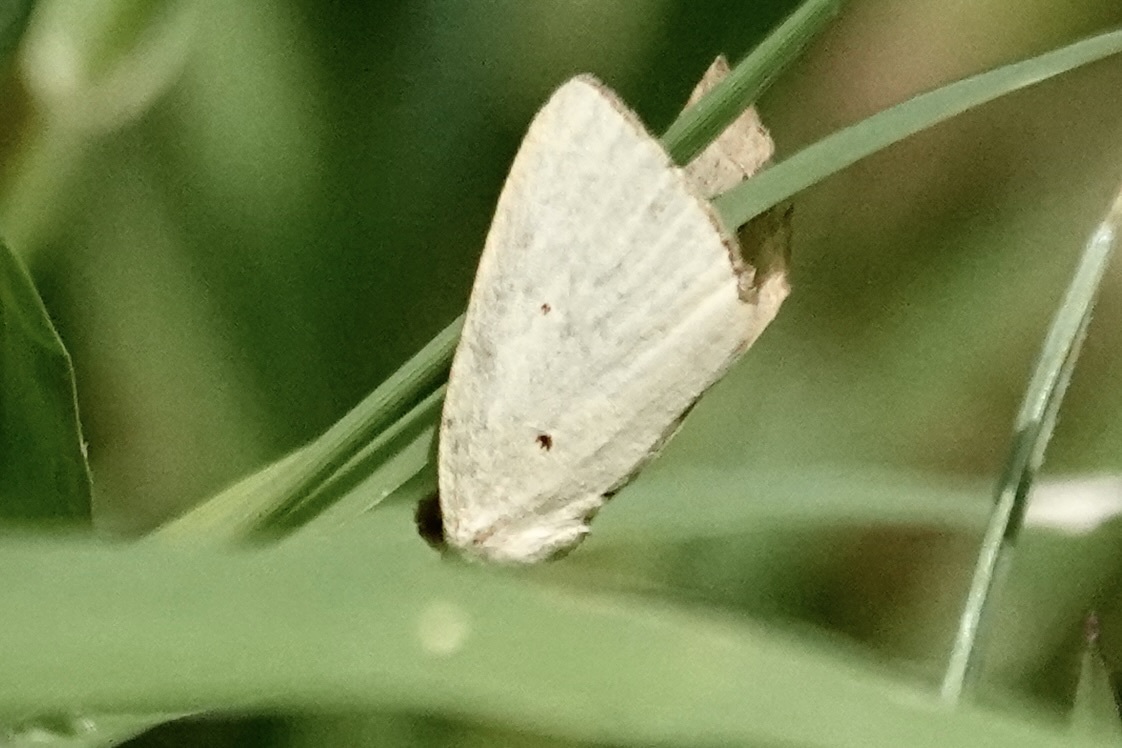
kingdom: Animalia
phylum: Arthropoda
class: Insecta
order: Lepidoptera
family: Noctuidae
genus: Marimatha
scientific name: Marimatha nigrofimbria
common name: Black-bordered lemon moth
